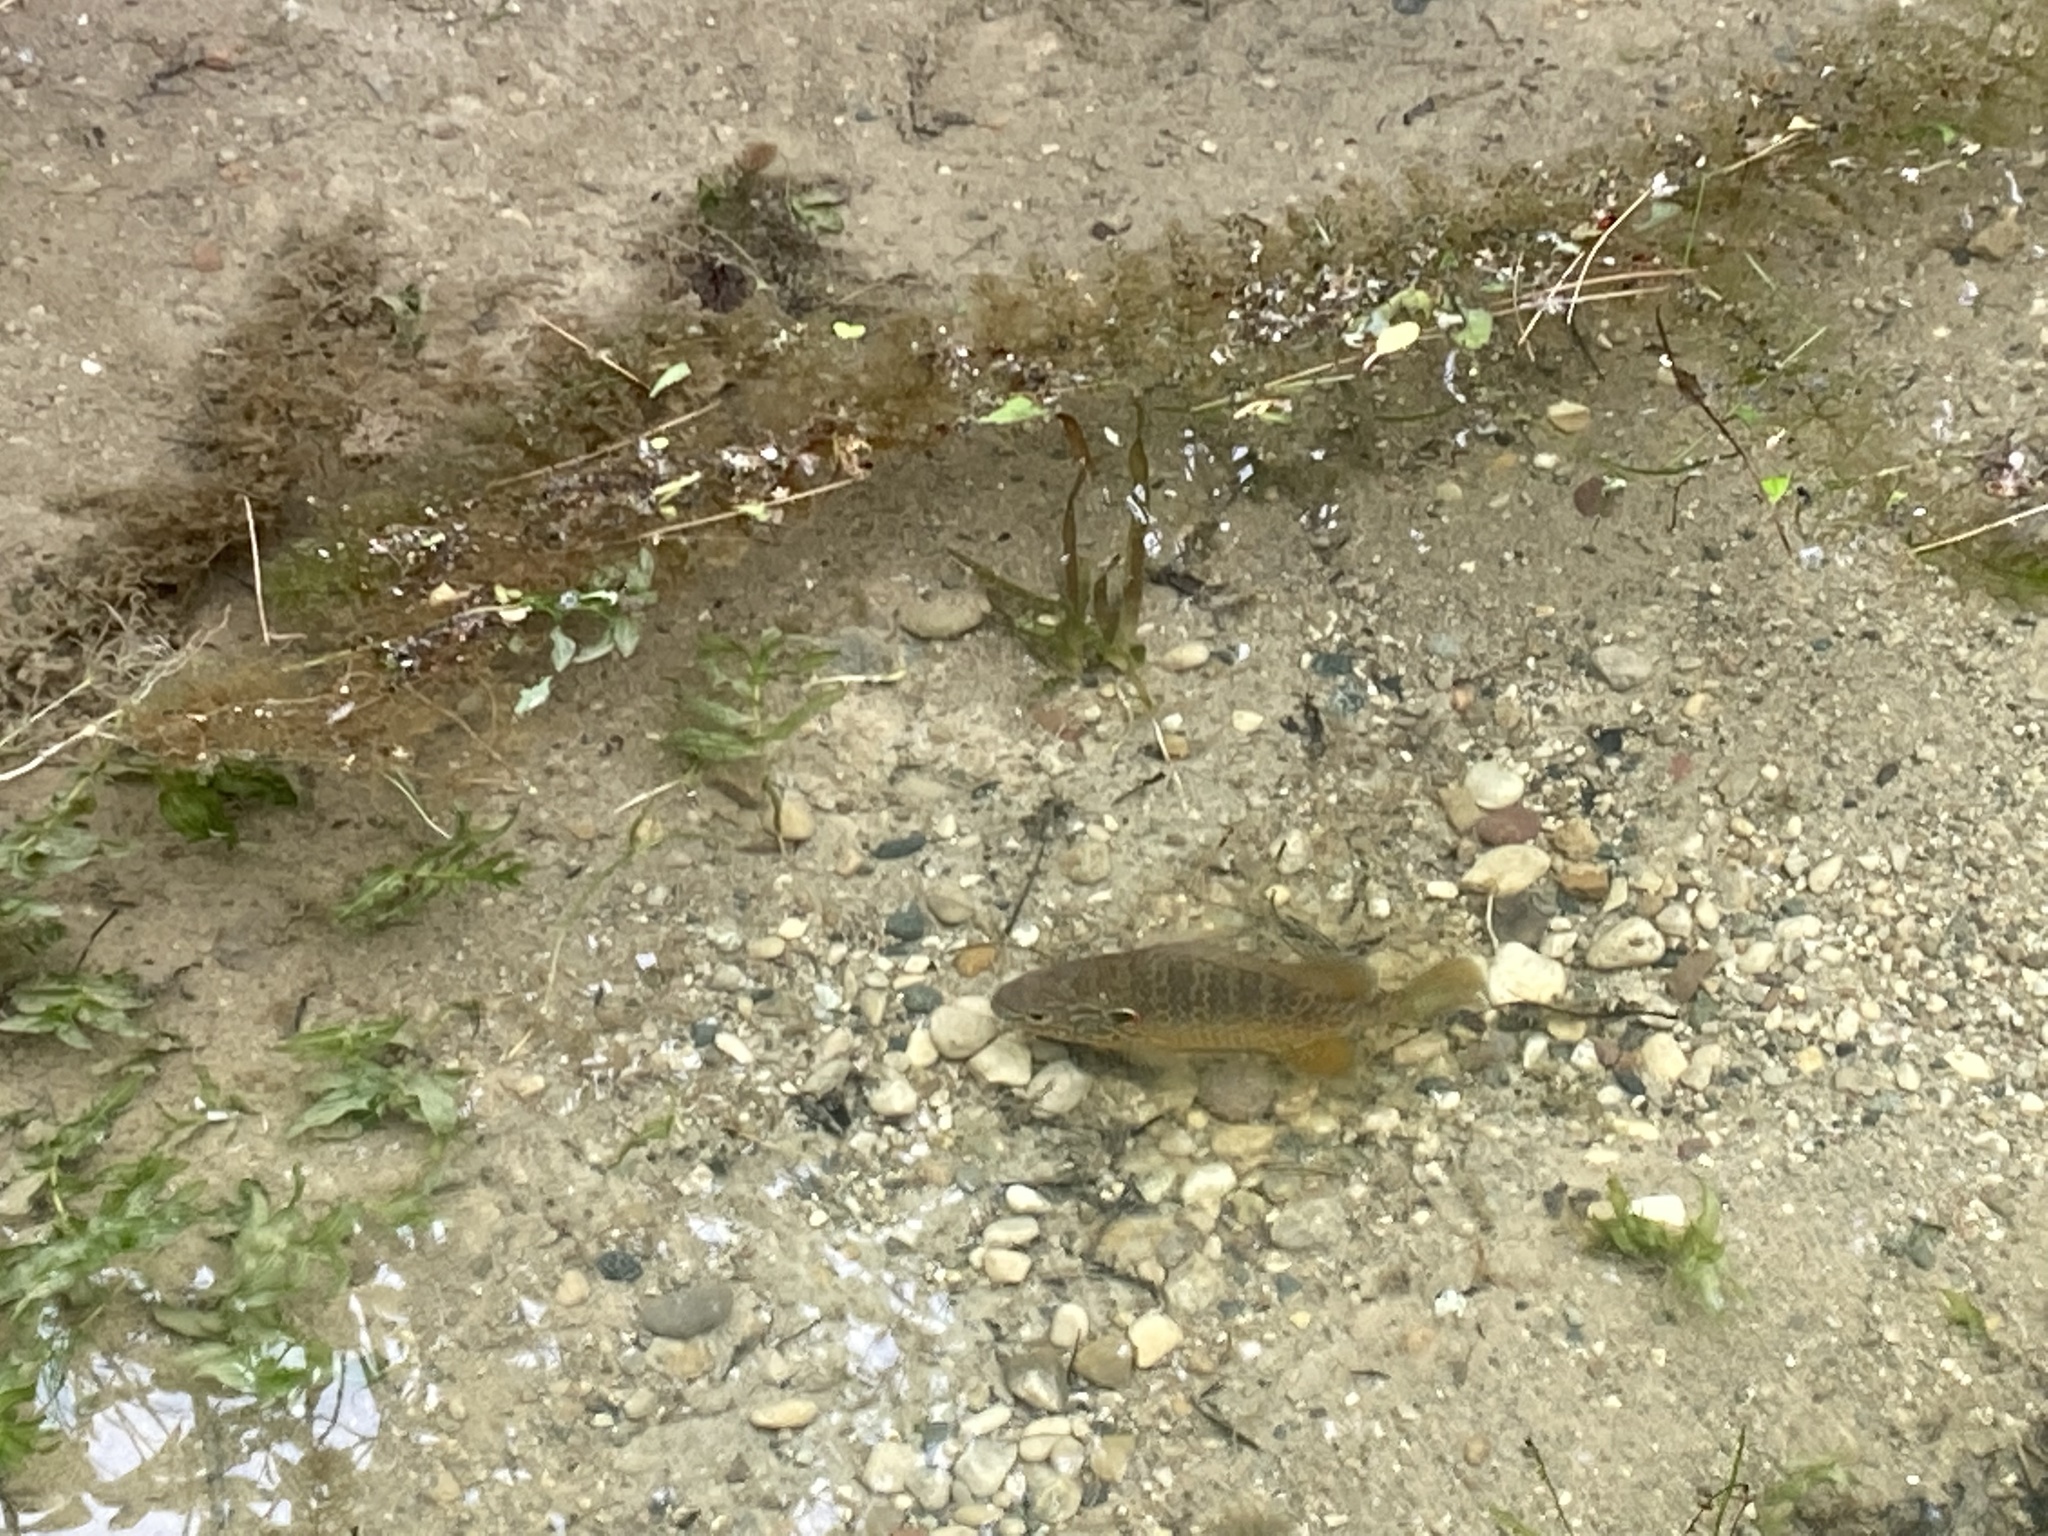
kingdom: Animalia
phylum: Chordata
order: Perciformes
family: Centrarchidae
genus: Lepomis
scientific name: Lepomis gibbosus
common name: Pumpkinseed
